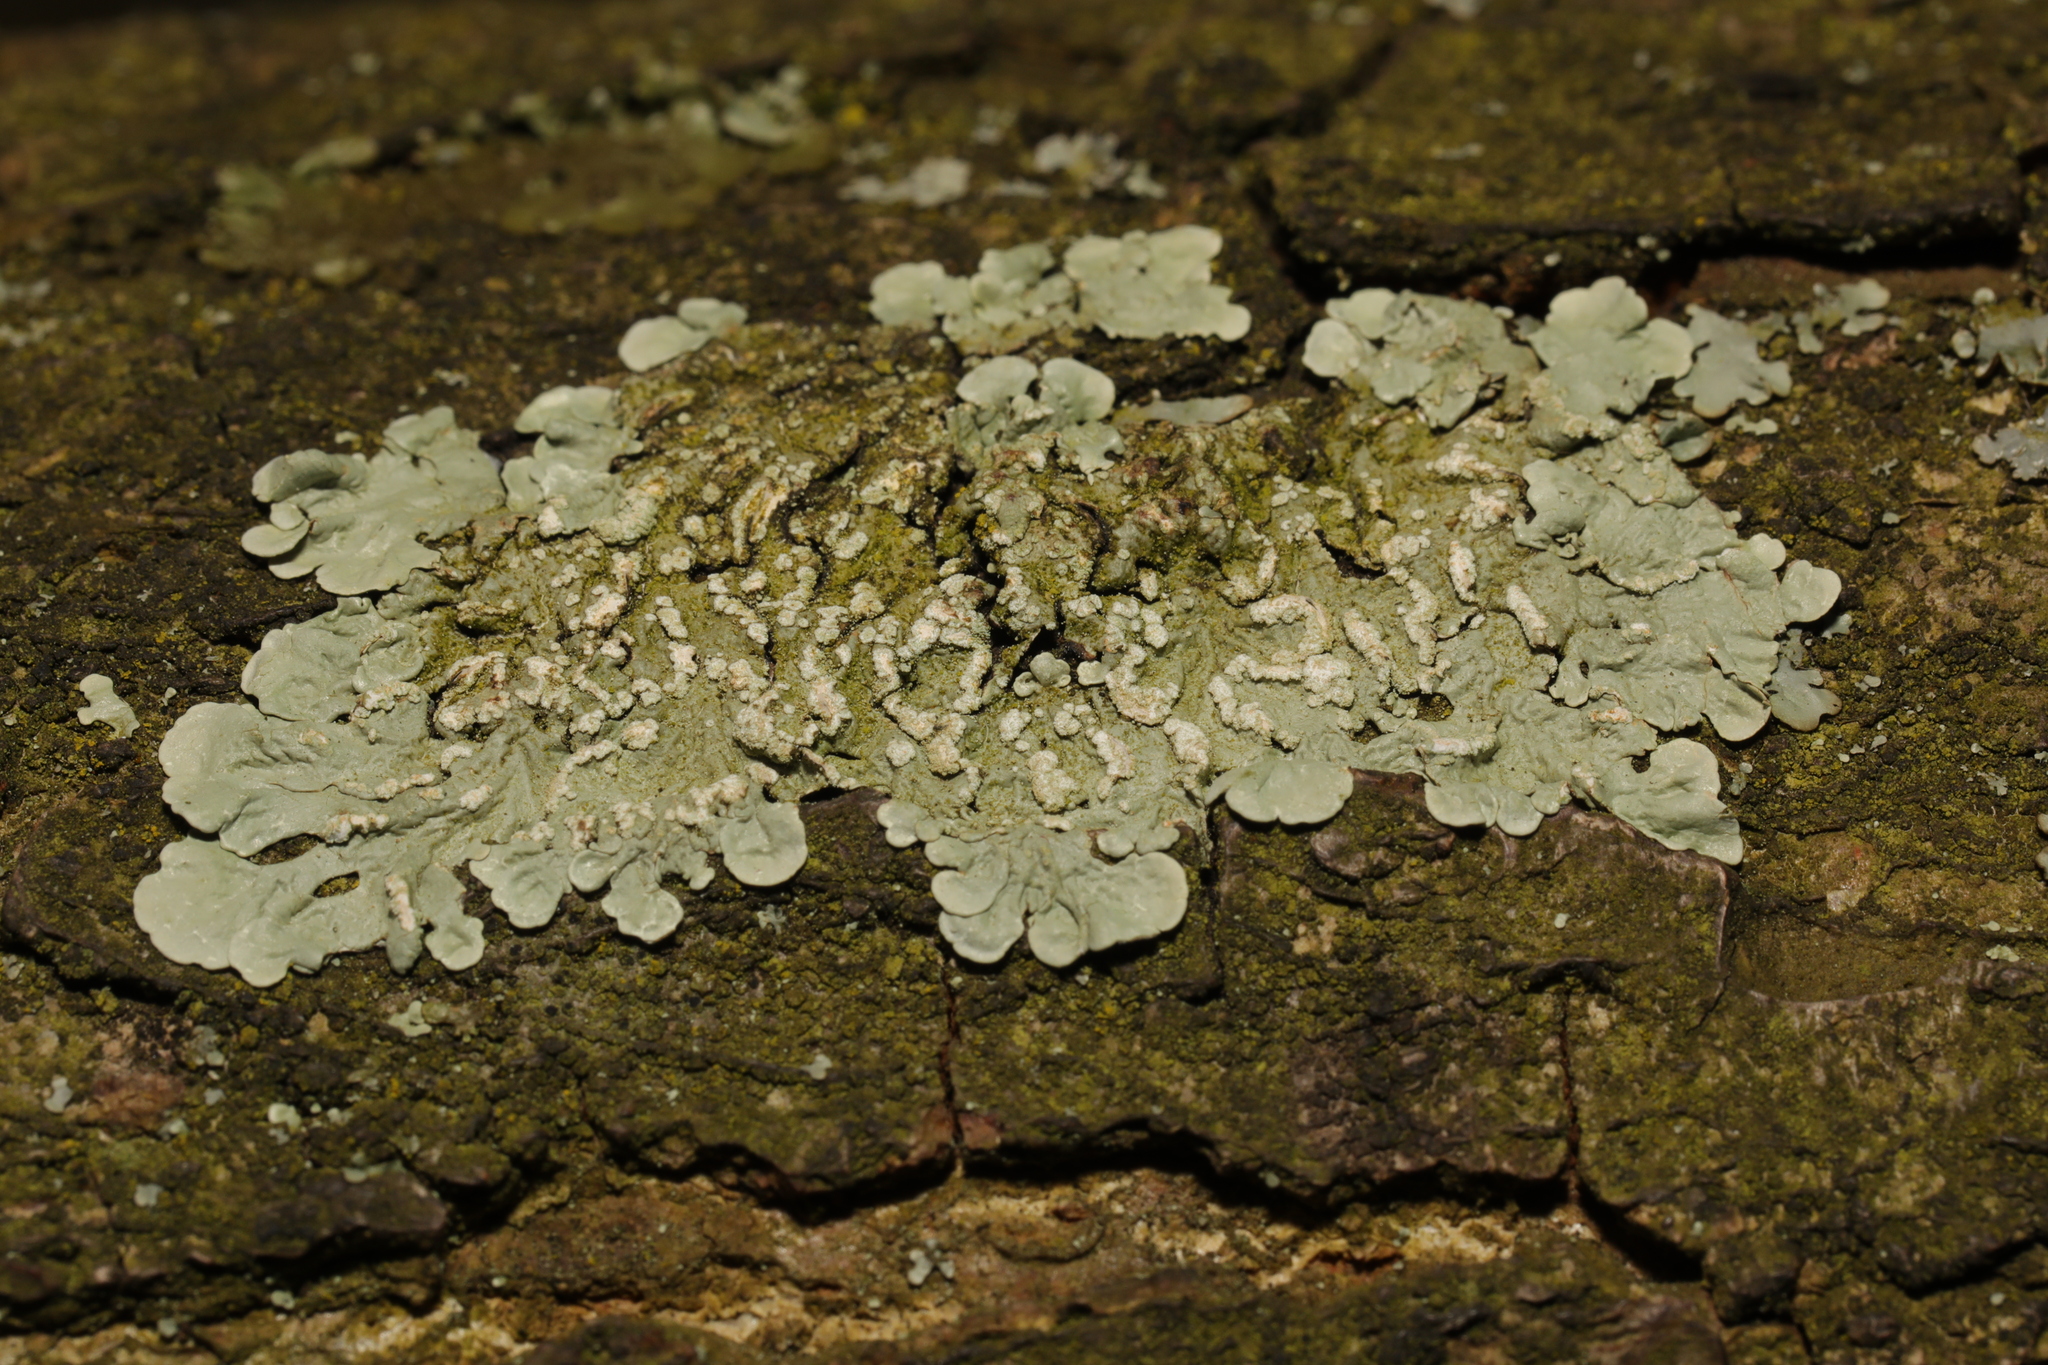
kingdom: Fungi
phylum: Ascomycota
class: Lecanoromycetes
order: Lecanorales
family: Parmeliaceae
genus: Flavoparmelia
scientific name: Flavoparmelia soredians
